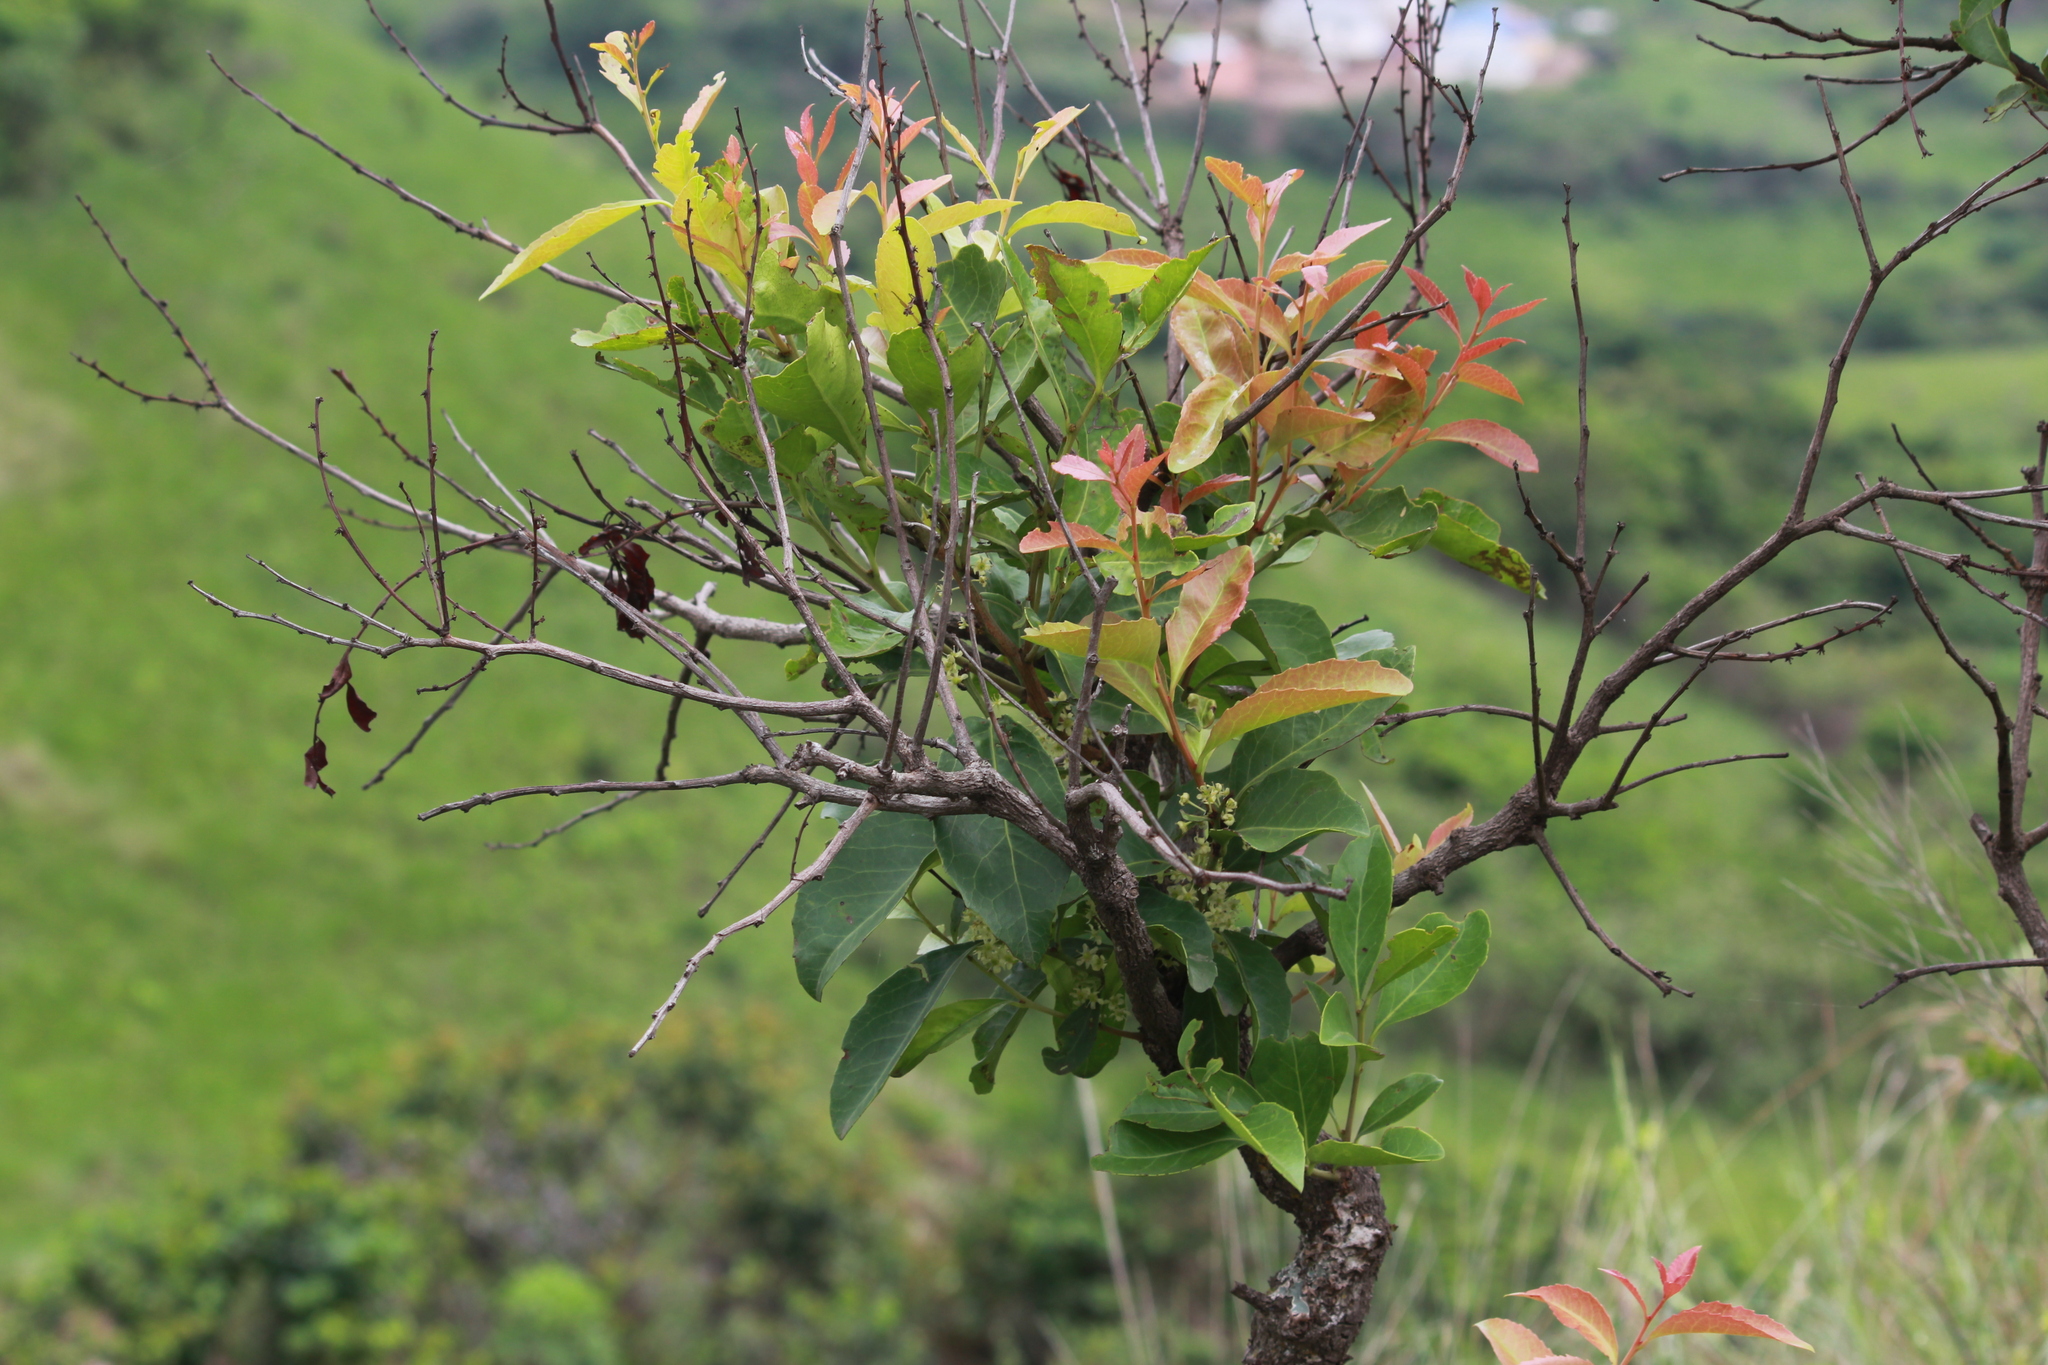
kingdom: Plantae
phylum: Tracheophyta
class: Magnoliopsida
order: Celastrales
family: Celastraceae
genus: Gymnosporia
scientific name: Gymnosporia undata
